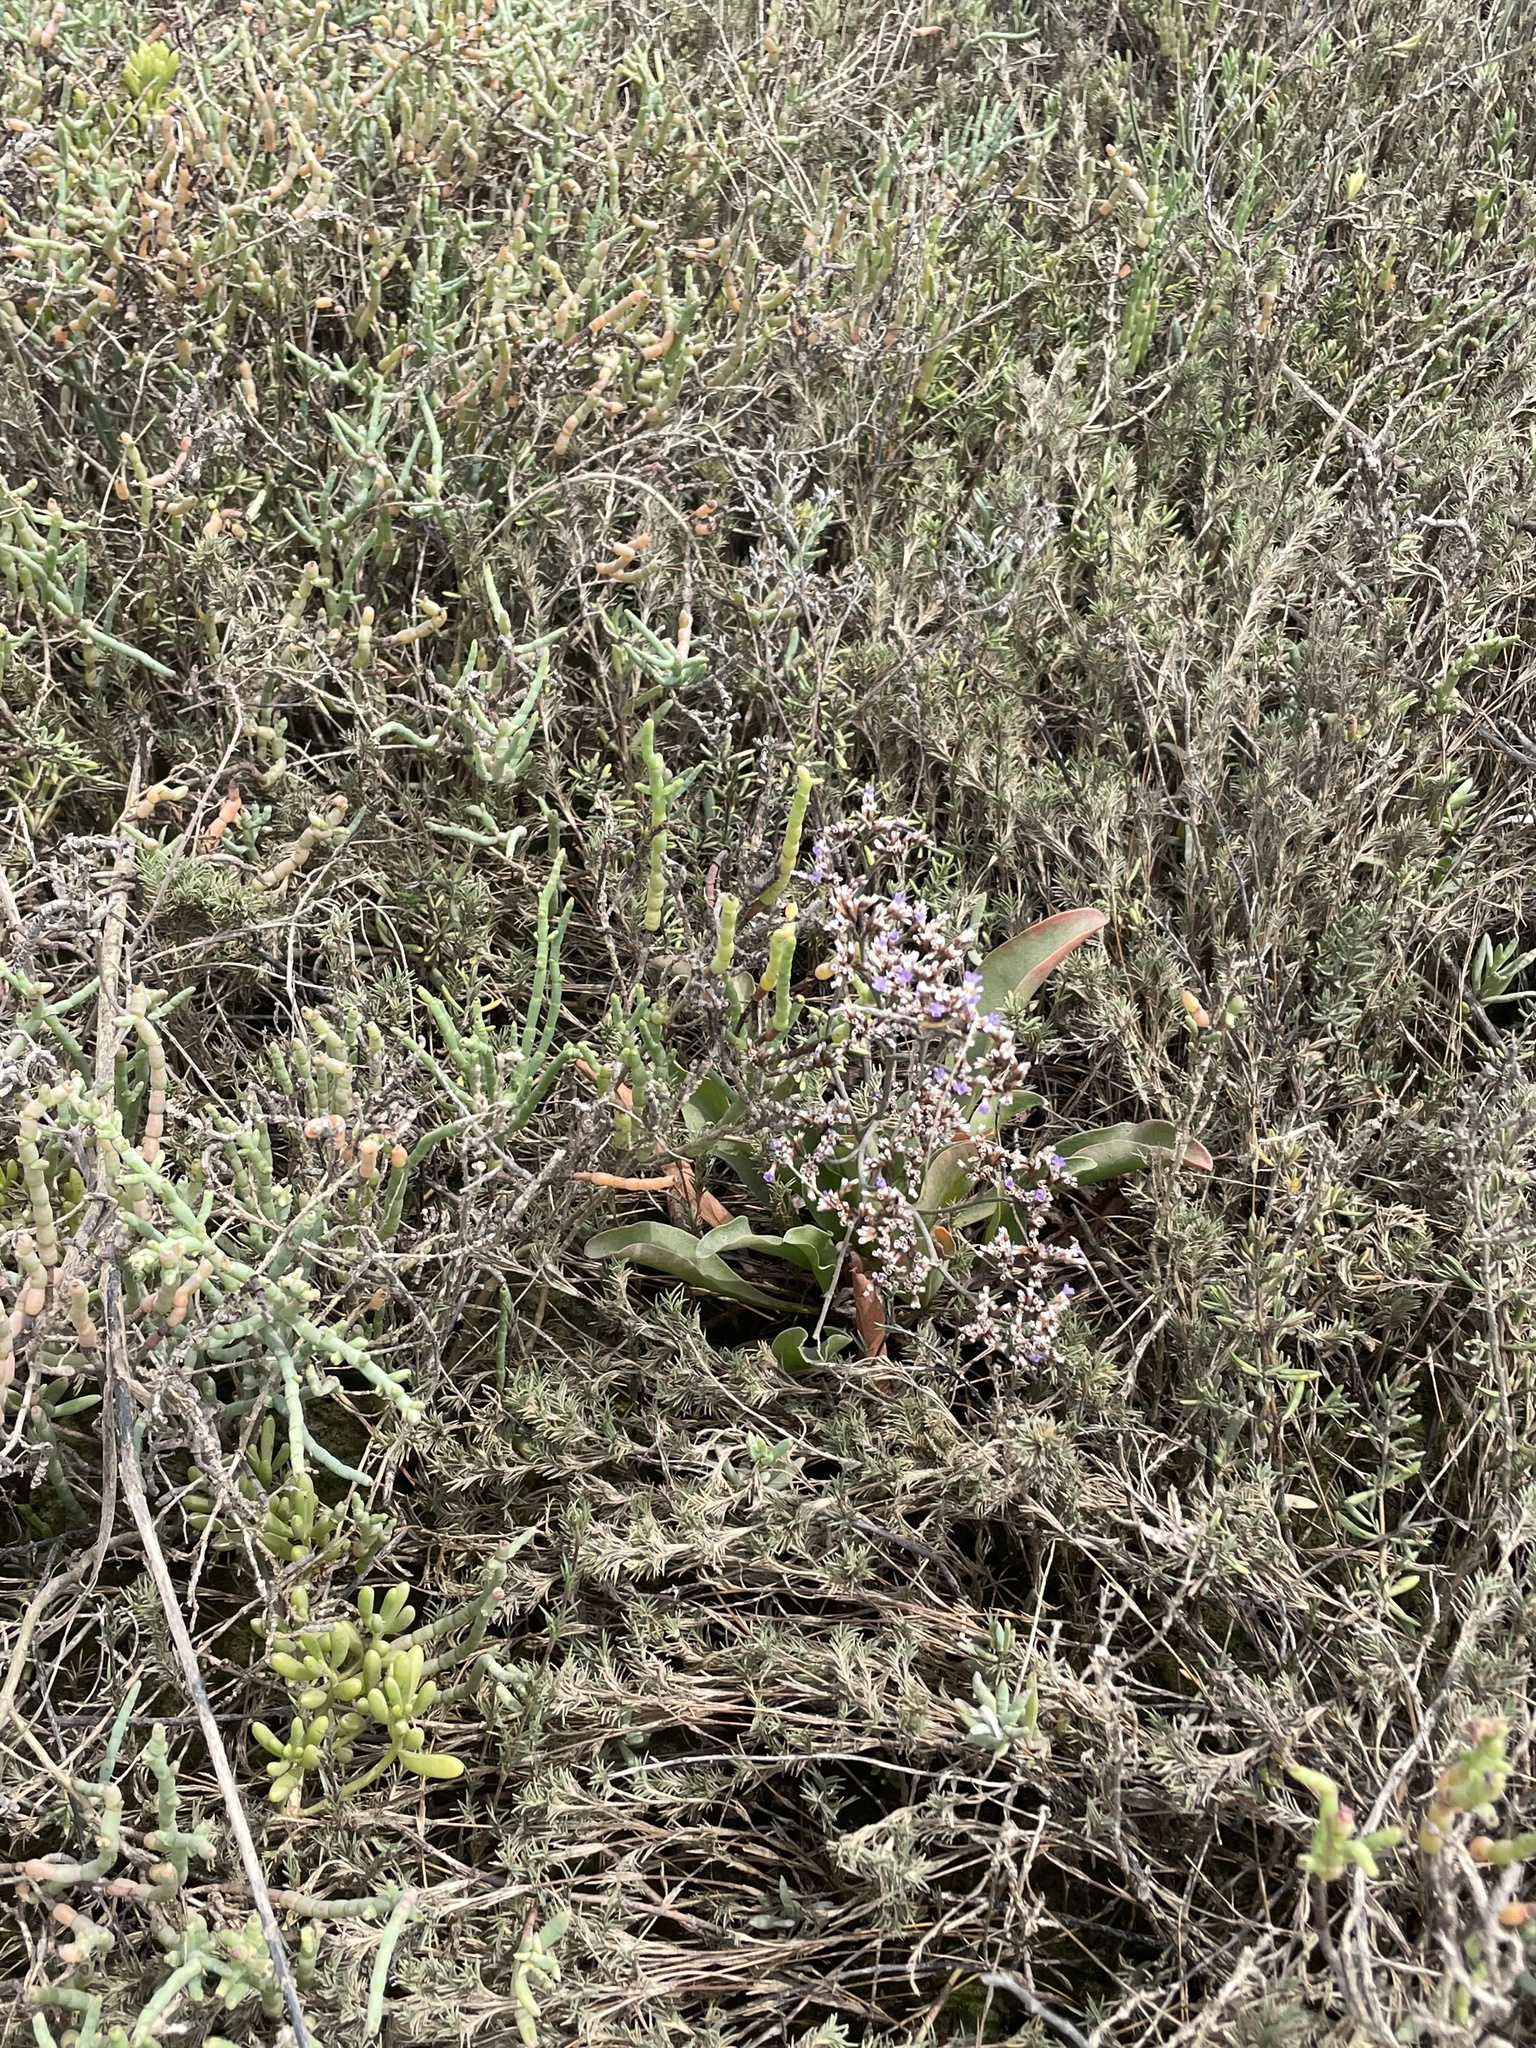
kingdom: Plantae
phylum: Tracheophyta
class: Magnoliopsida
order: Caryophyllales
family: Plumbaginaceae
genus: Limonium
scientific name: Limonium californicum
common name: Marsh-rosemary
